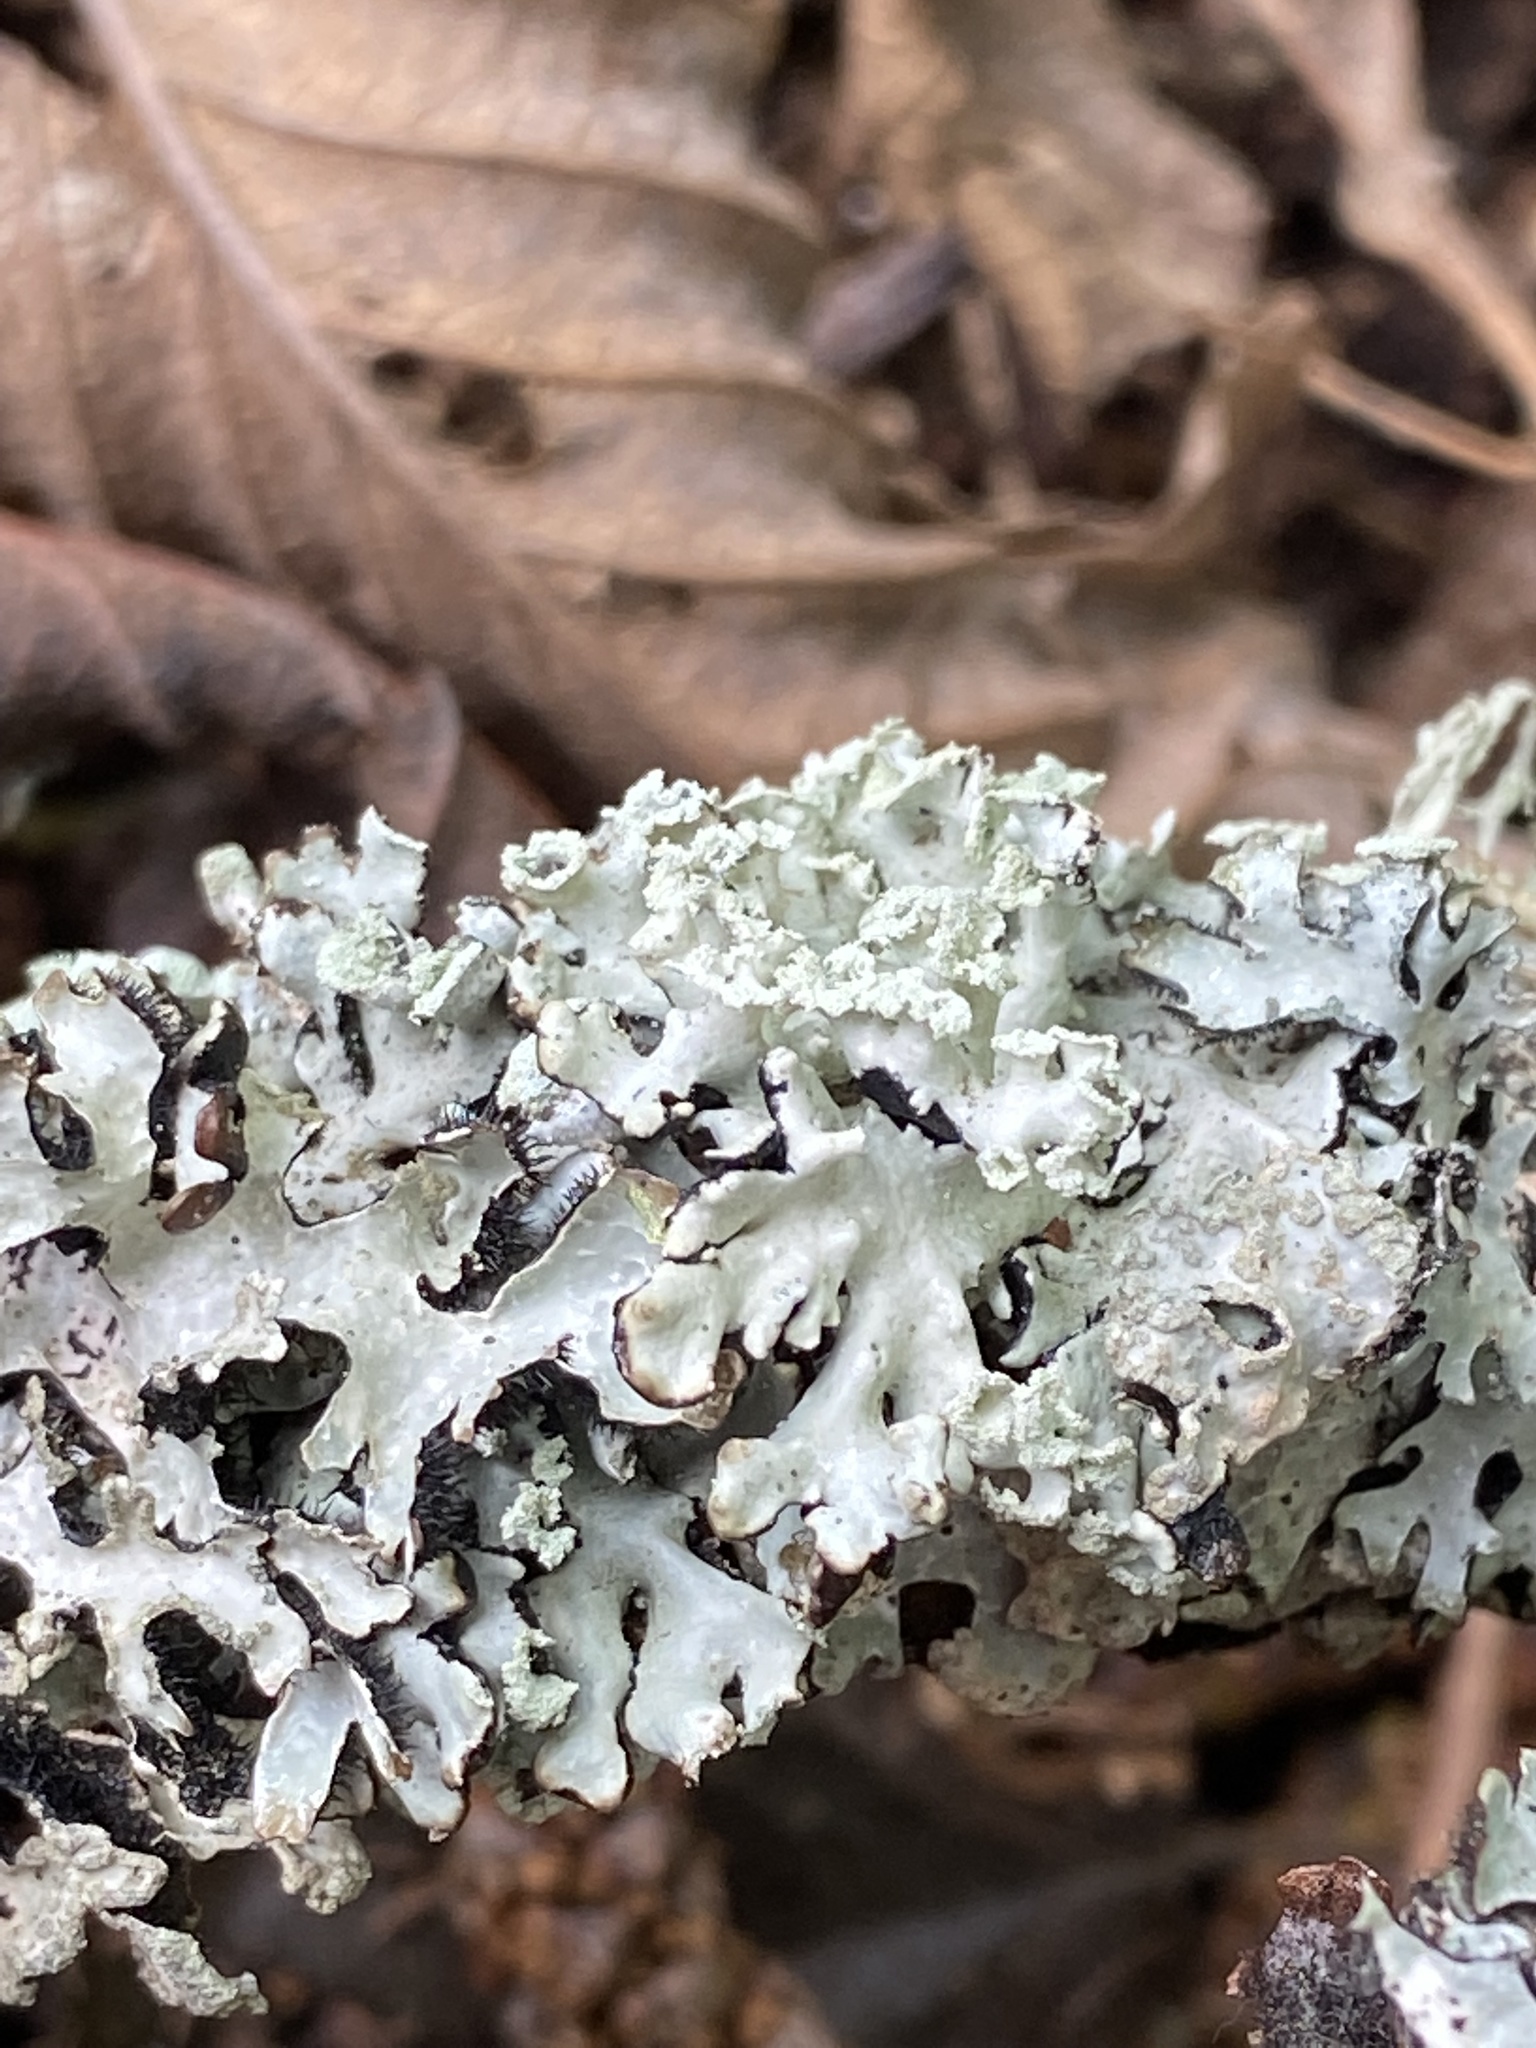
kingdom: Fungi
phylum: Ascomycota
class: Lecanoromycetes
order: Lecanorales
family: Parmeliaceae
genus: Hypogymnia
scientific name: Hypogymnia physodes
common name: Dark crottle
